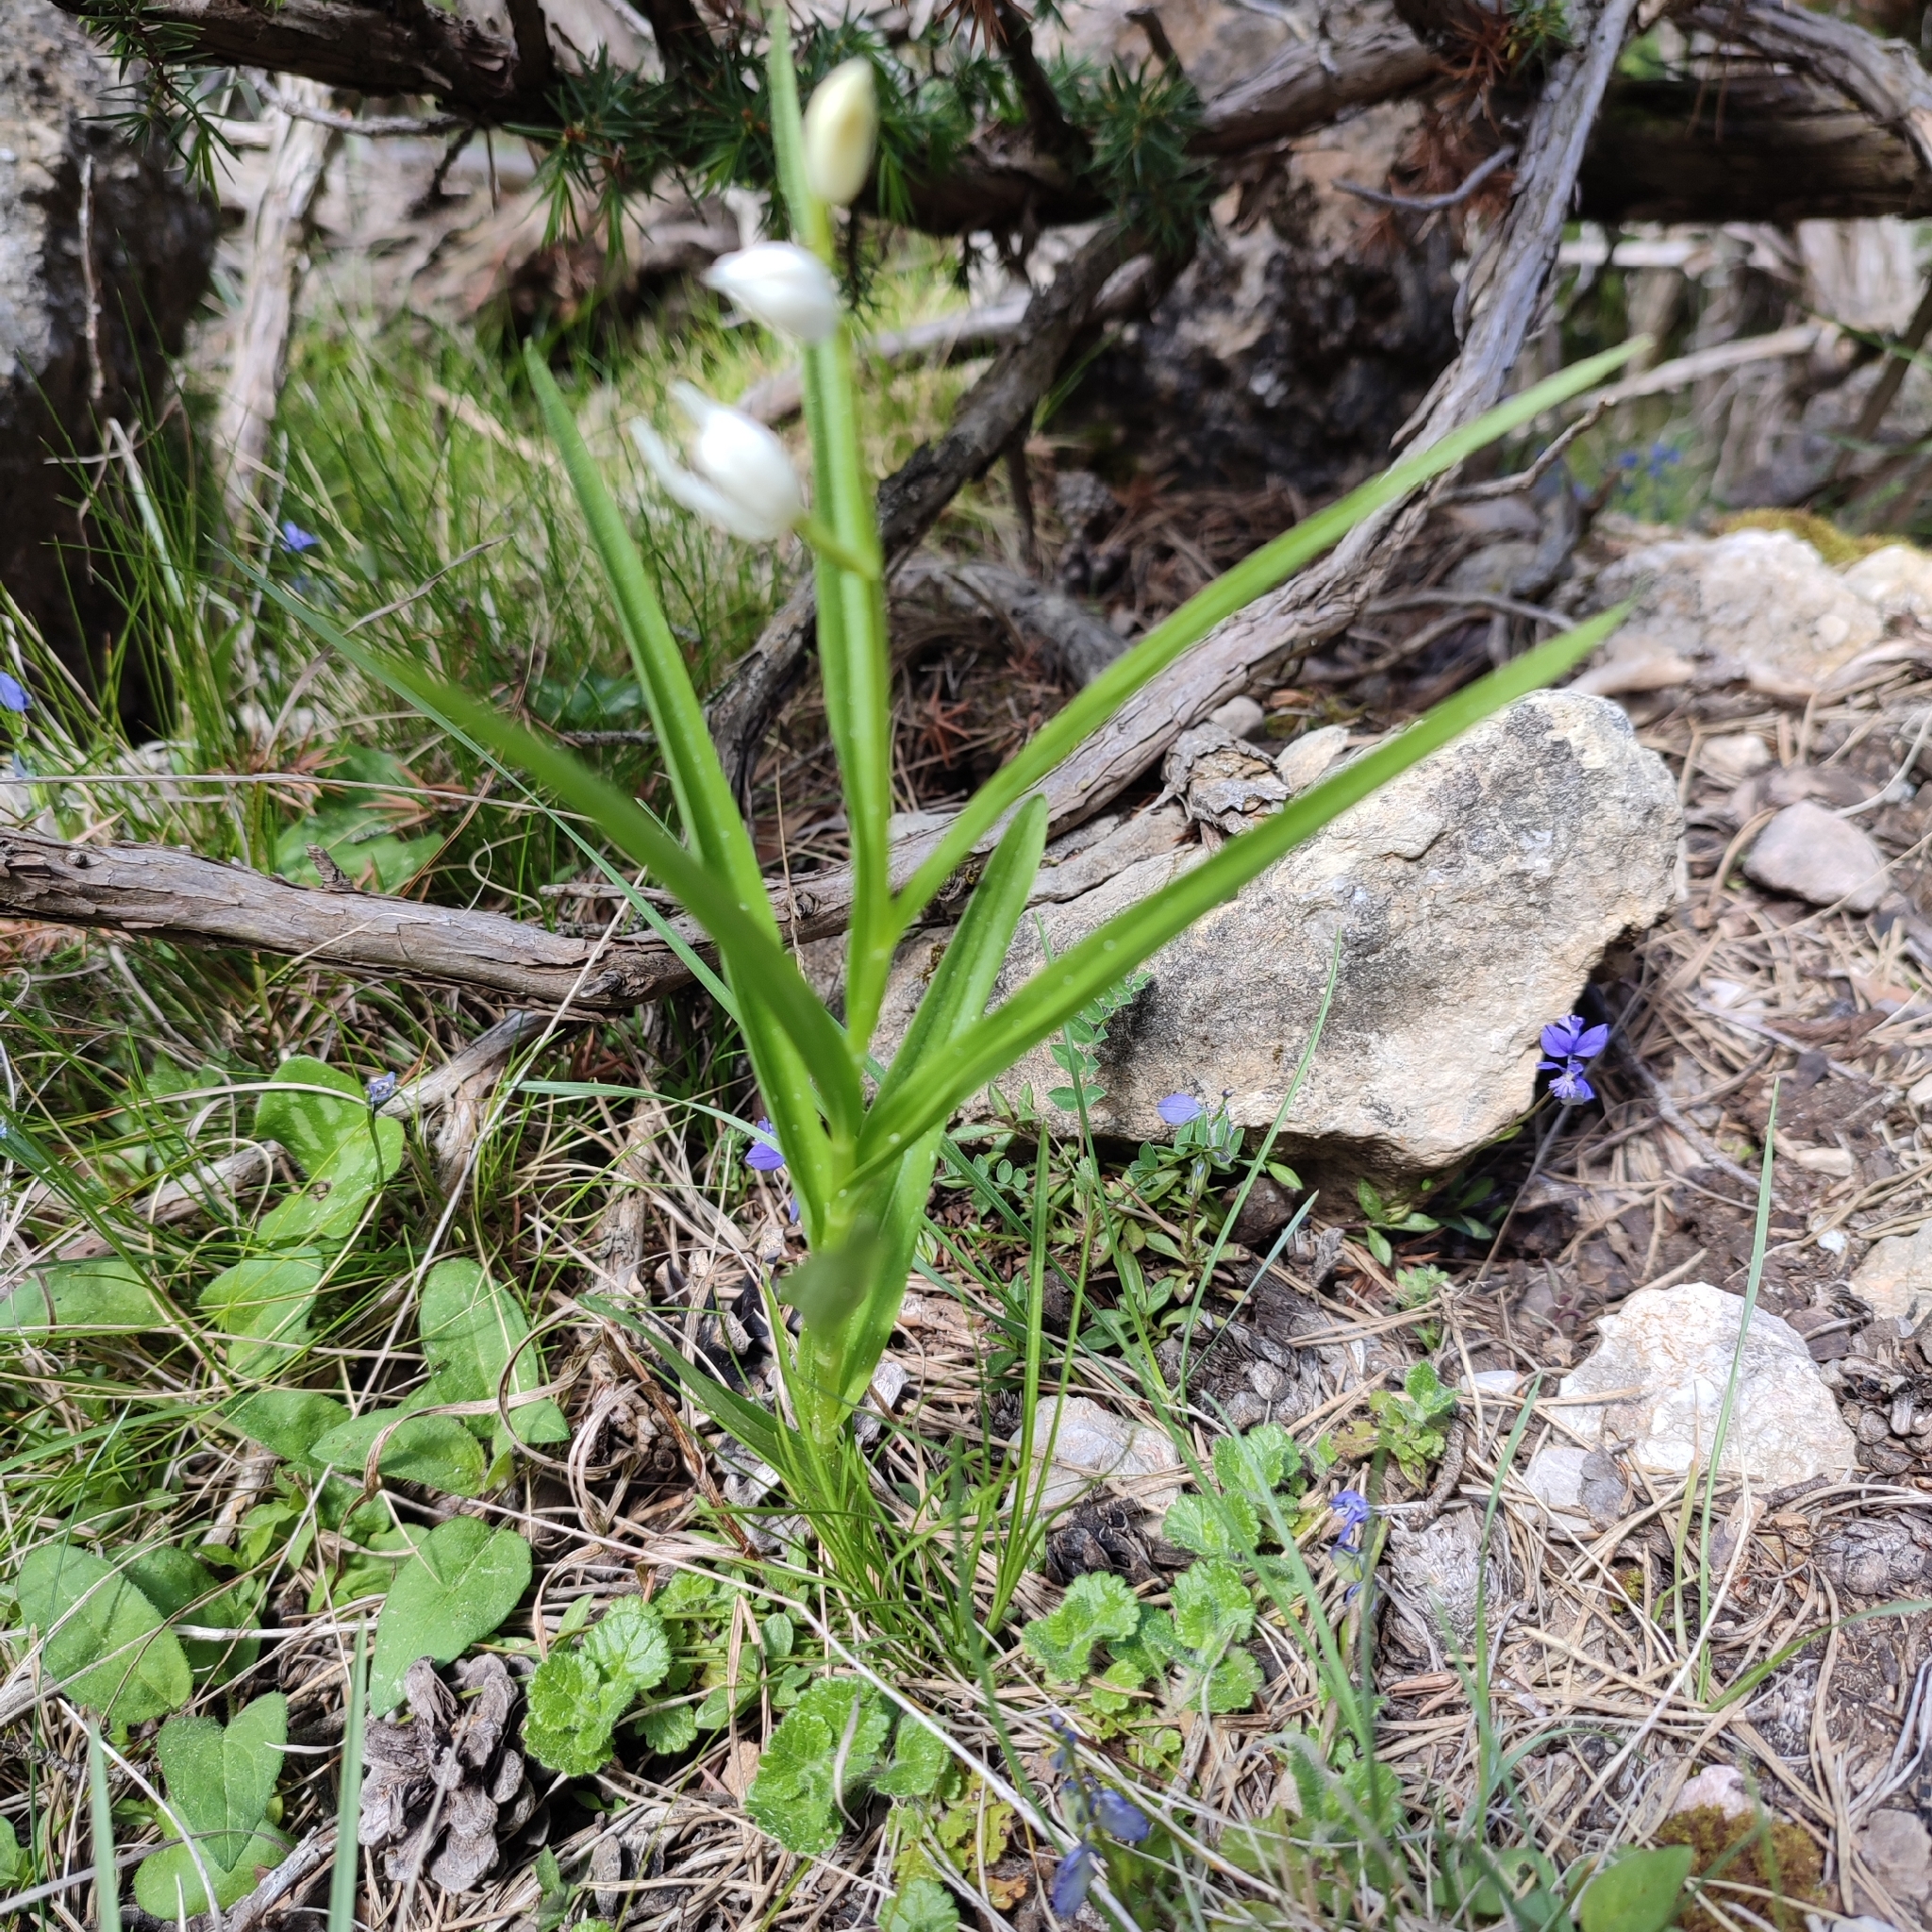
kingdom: Plantae
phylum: Tracheophyta
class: Liliopsida
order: Asparagales
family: Orchidaceae
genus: Cephalanthera
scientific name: Cephalanthera longifolia
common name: Narrow-leaved helleborine
